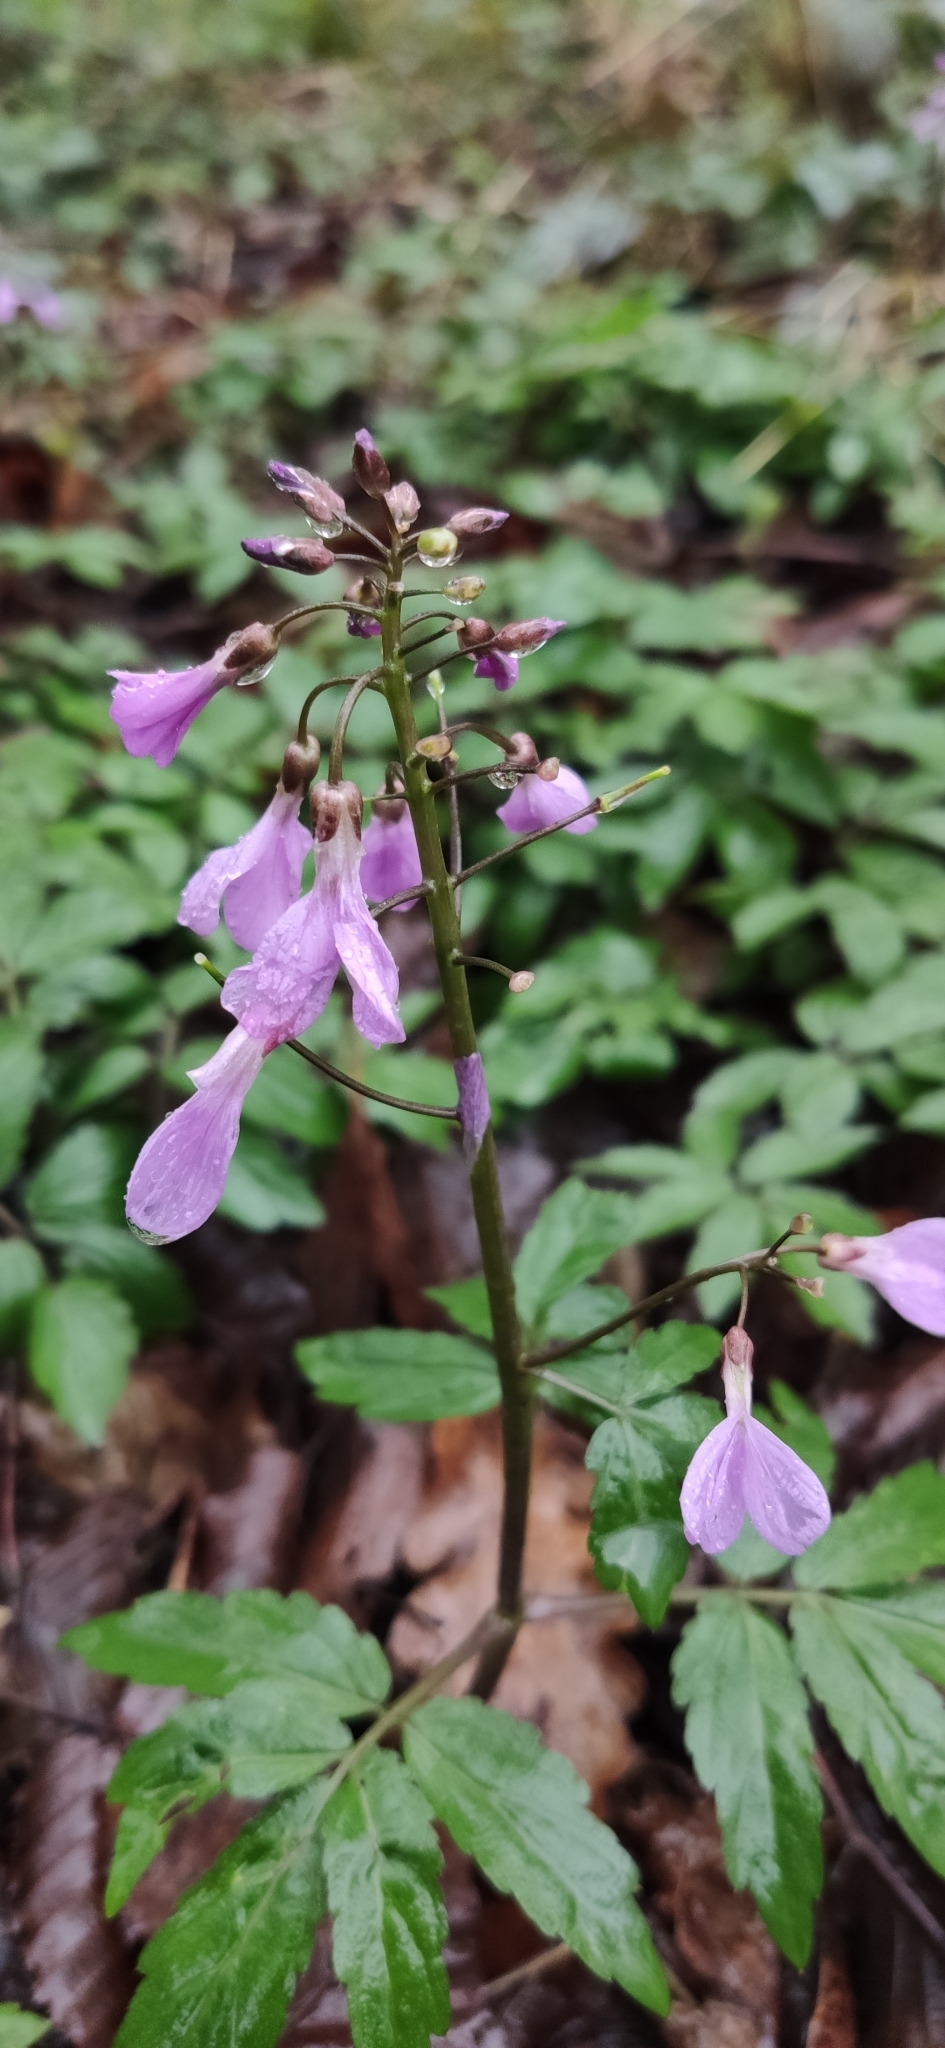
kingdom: Plantae
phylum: Tracheophyta
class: Magnoliopsida
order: Brassicales
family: Brassicaceae
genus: Cardamine
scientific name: Cardamine quinquefolia
